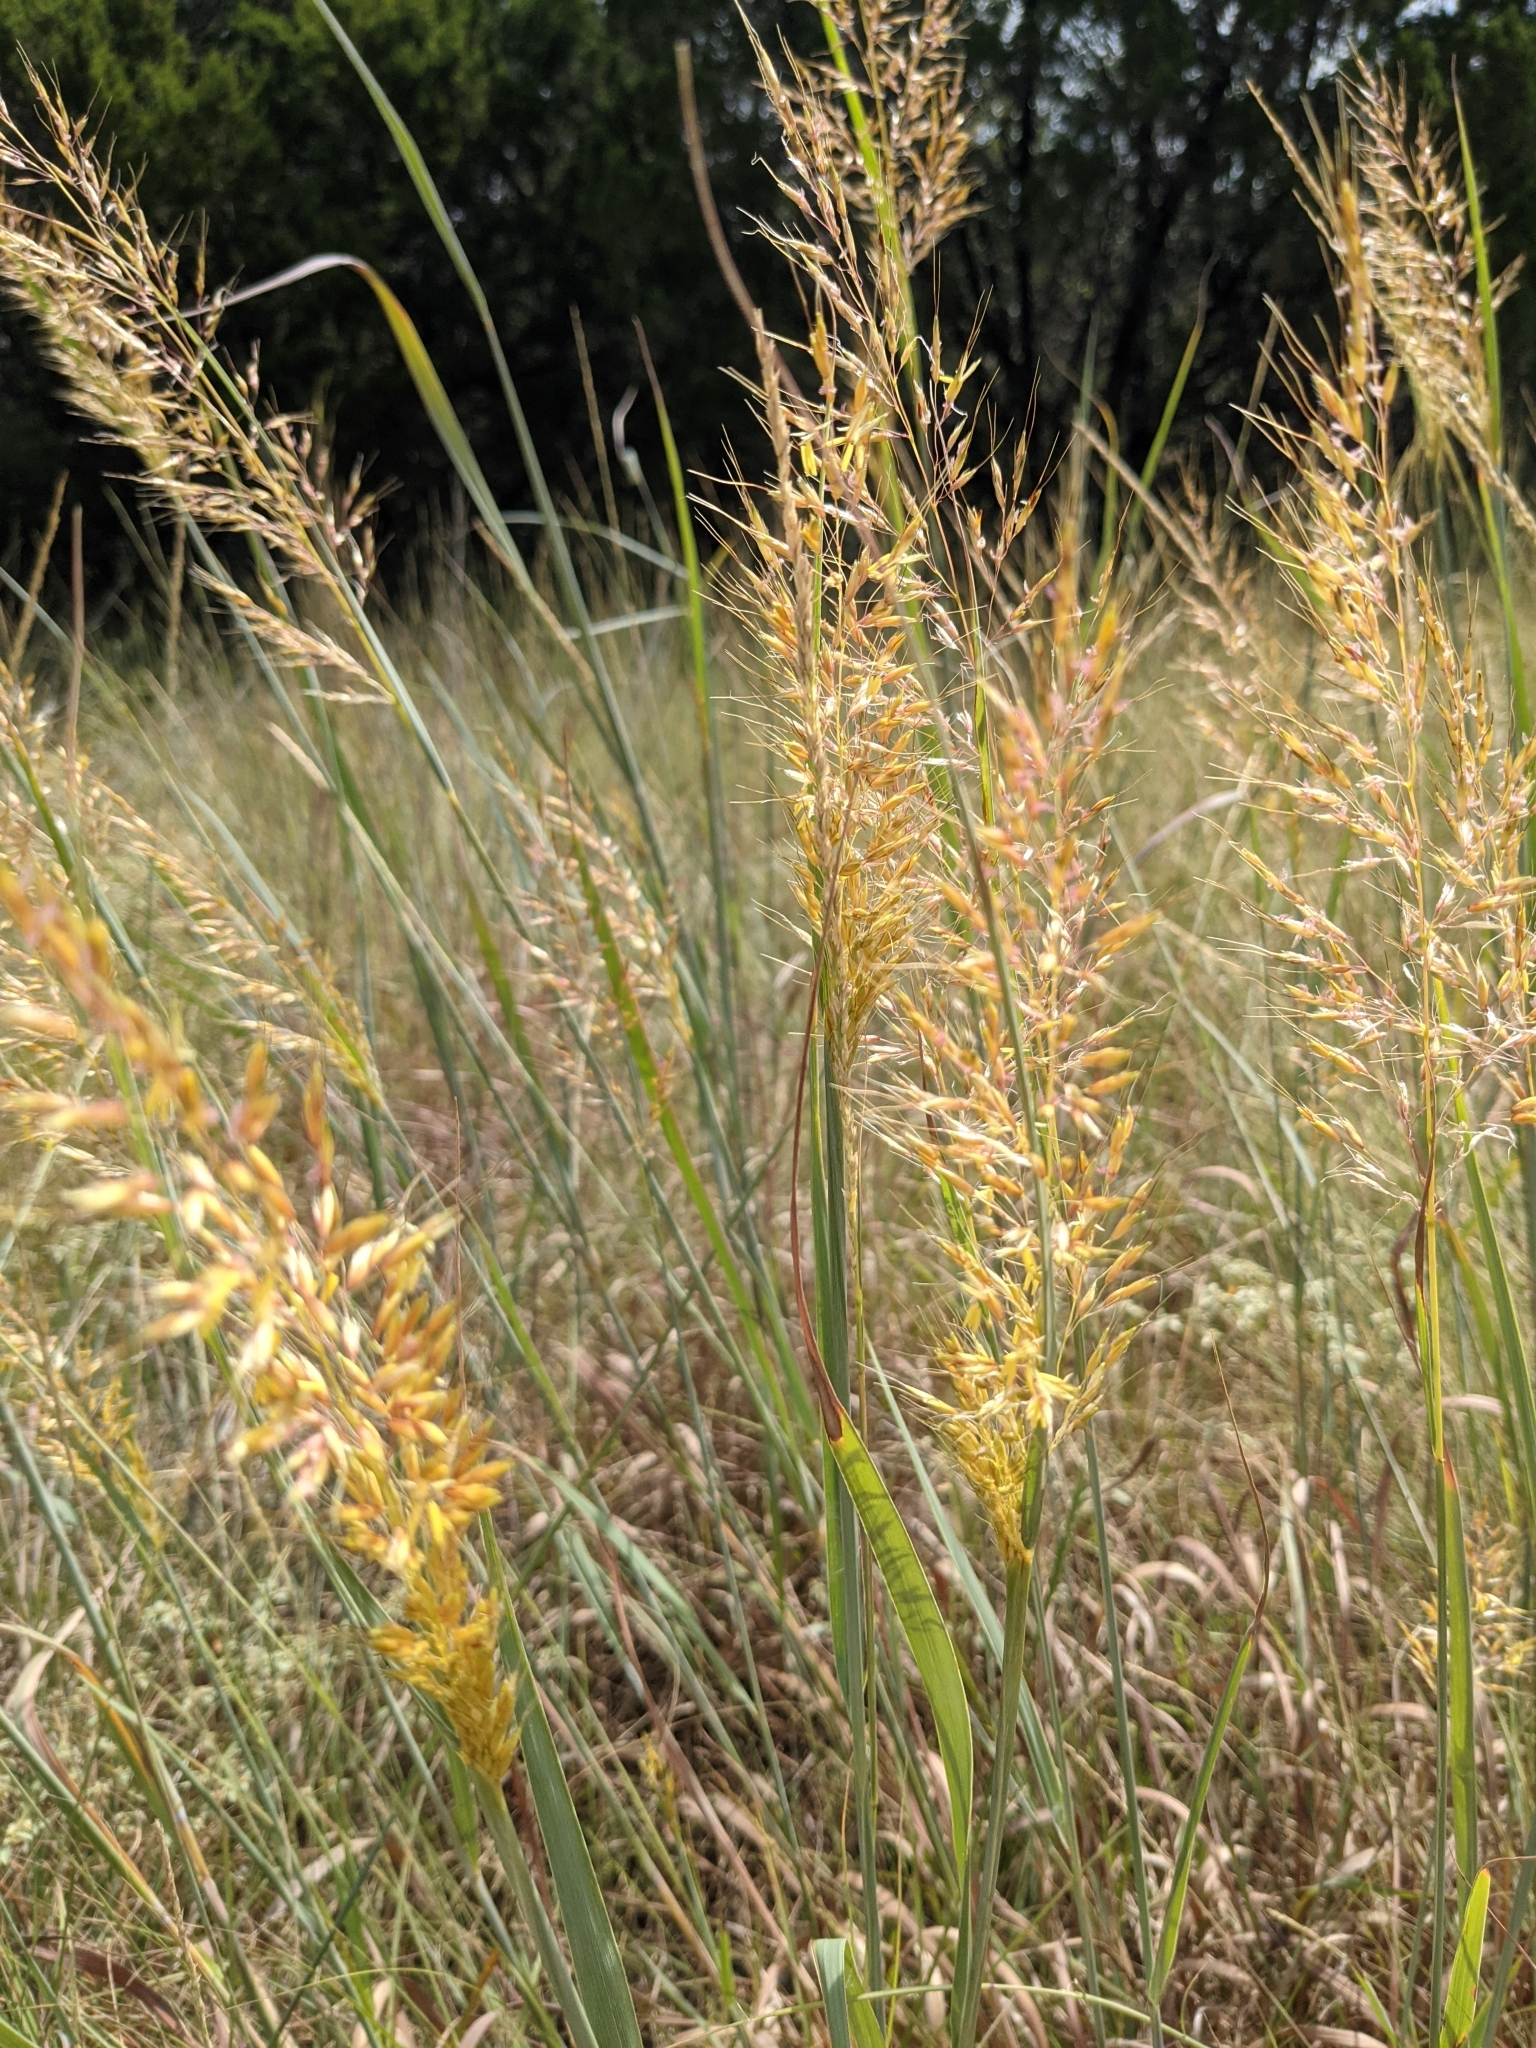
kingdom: Plantae
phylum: Tracheophyta
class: Liliopsida
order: Poales
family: Poaceae
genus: Sorghastrum
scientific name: Sorghastrum nutans
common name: Indian grass
